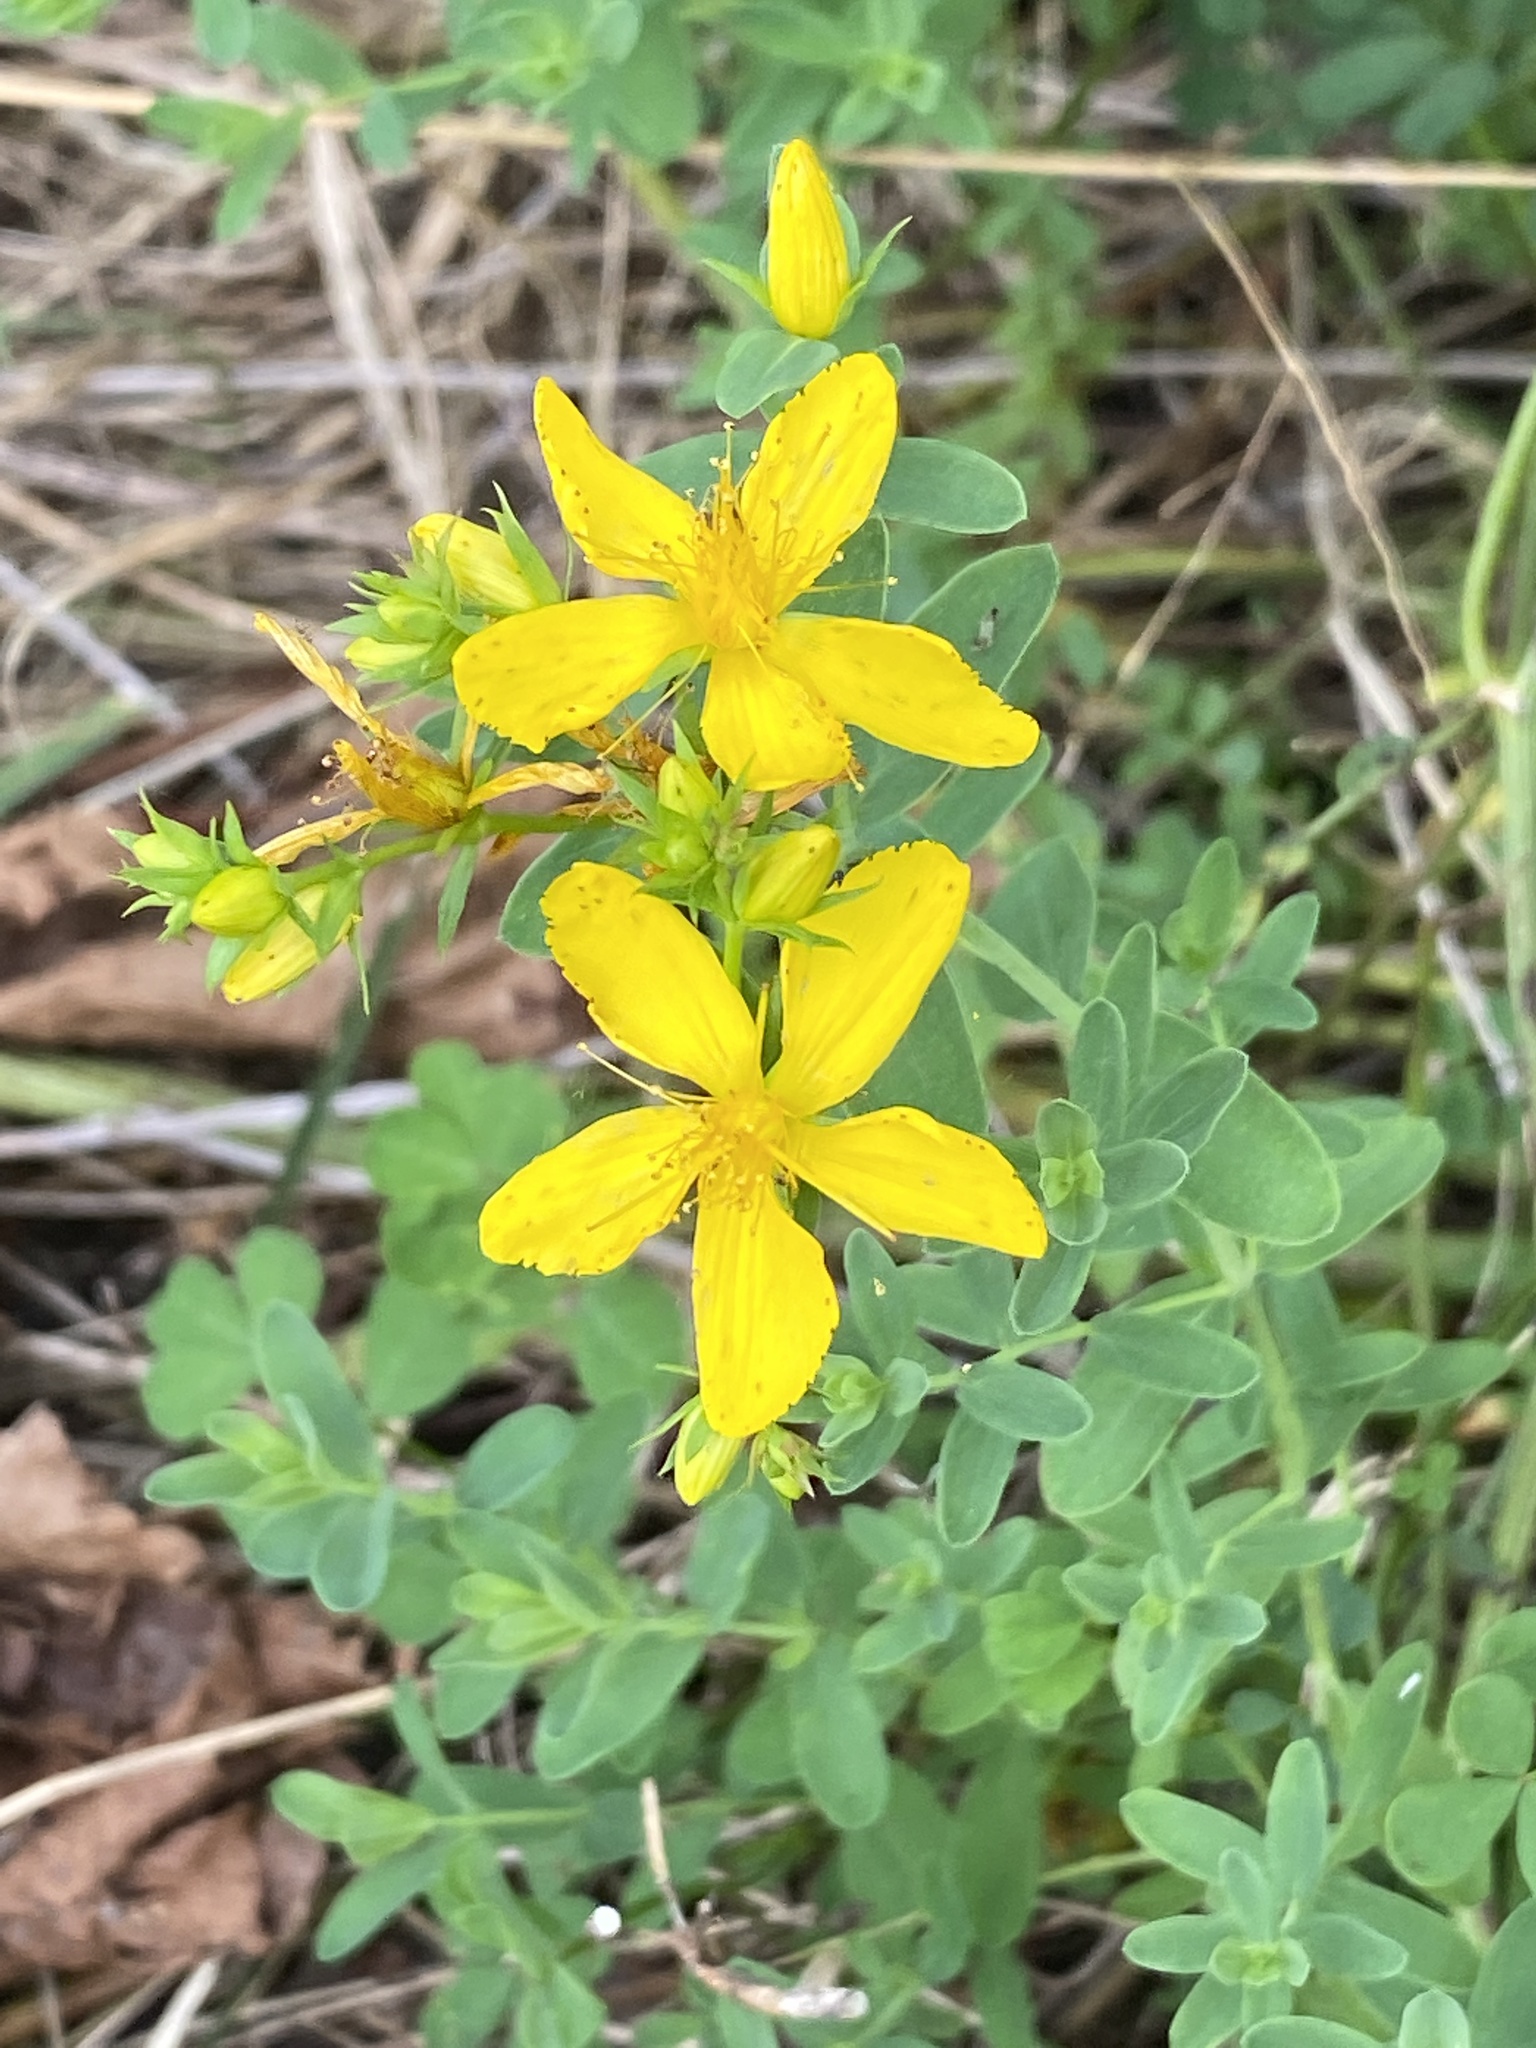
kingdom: Plantae
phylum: Tracheophyta
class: Magnoliopsida
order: Malpighiales
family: Hypericaceae
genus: Hypericum
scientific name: Hypericum perforatum
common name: Common st. johnswort
